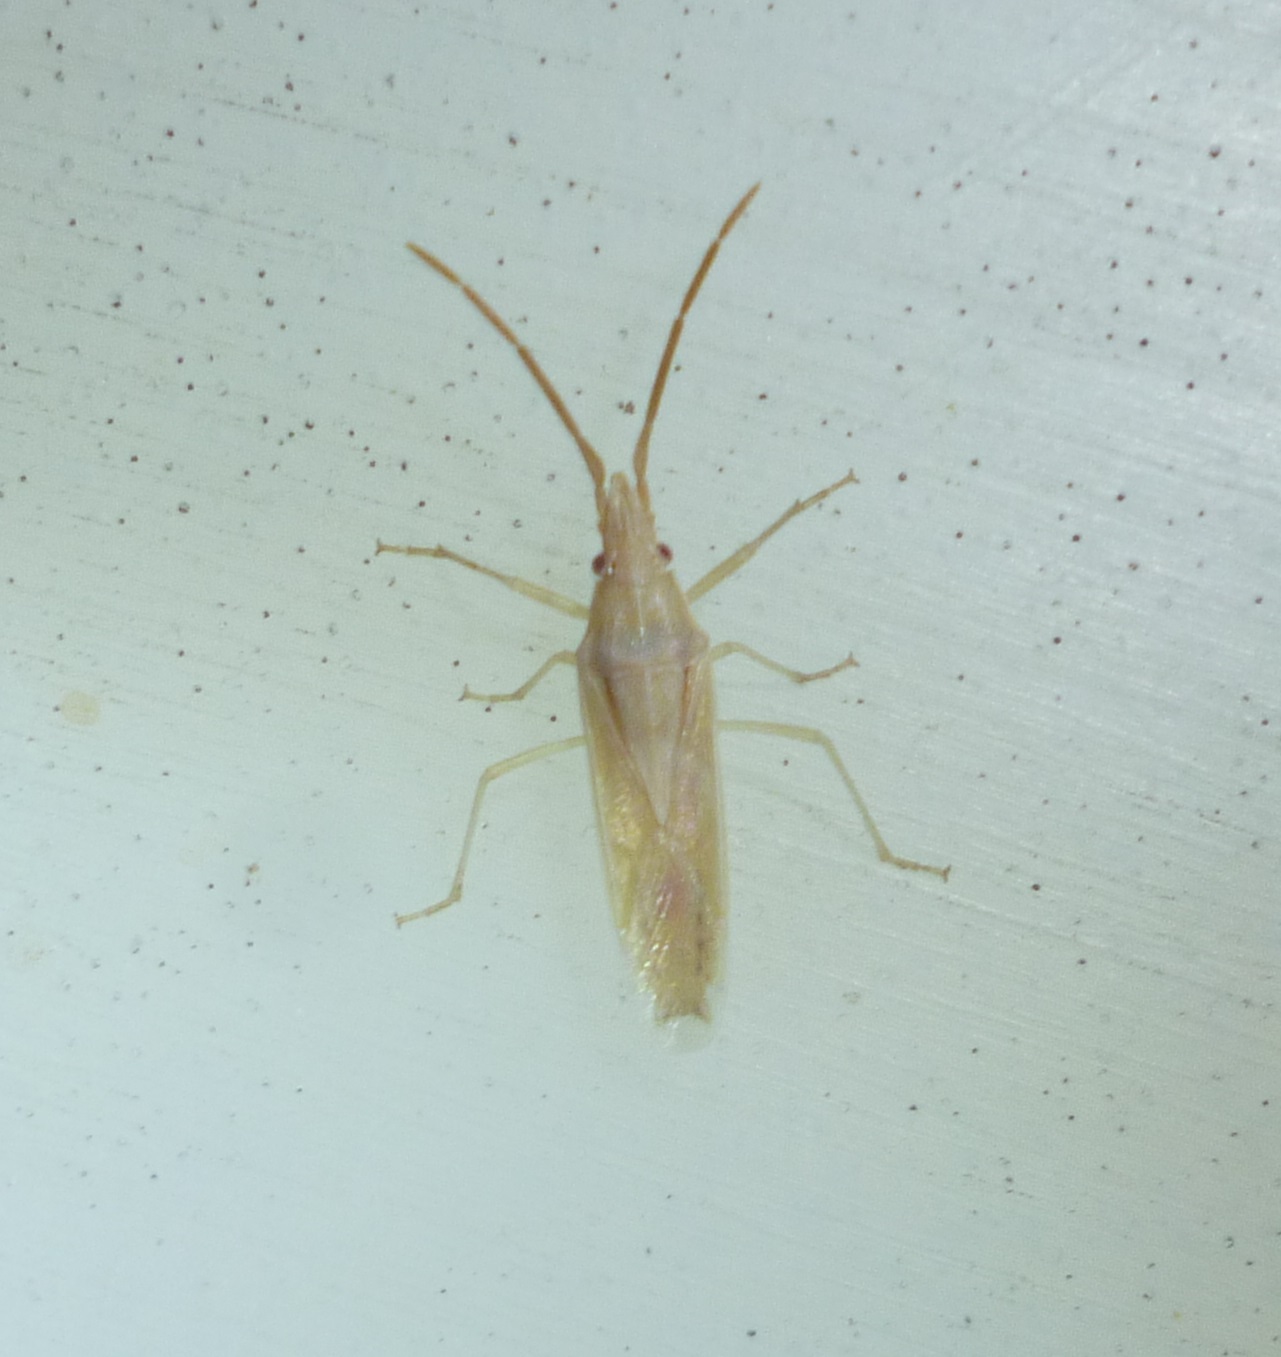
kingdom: Animalia
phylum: Arthropoda
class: Insecta
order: Hemiptera
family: Pentatomidae
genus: Mecidea
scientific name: Mecidea pallidissima
